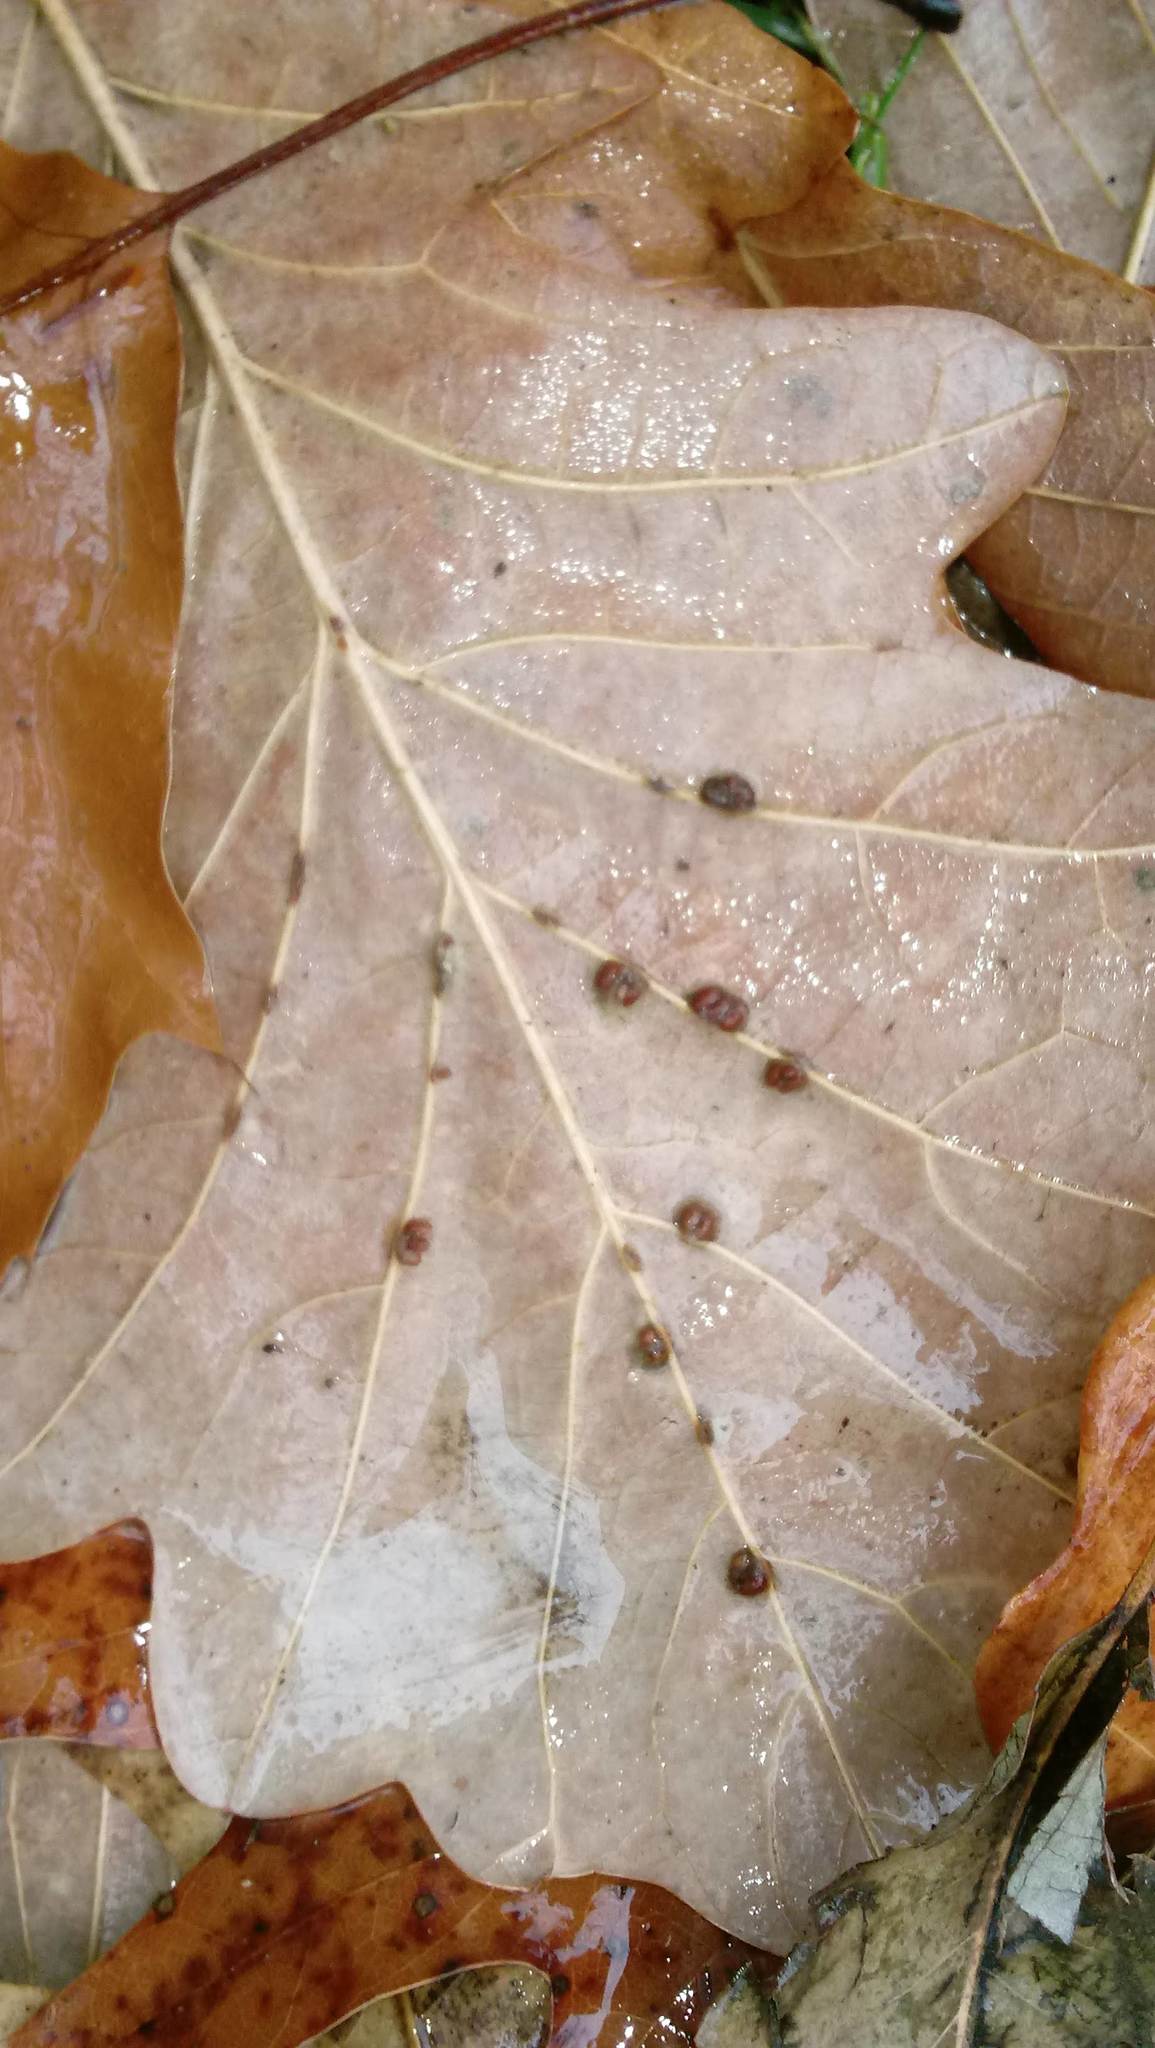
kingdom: Animalia
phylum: Arthropoda
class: Insecta
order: Hymenoptera
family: Cynipidae
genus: Andricus
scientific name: Andricus Druon ignotum
